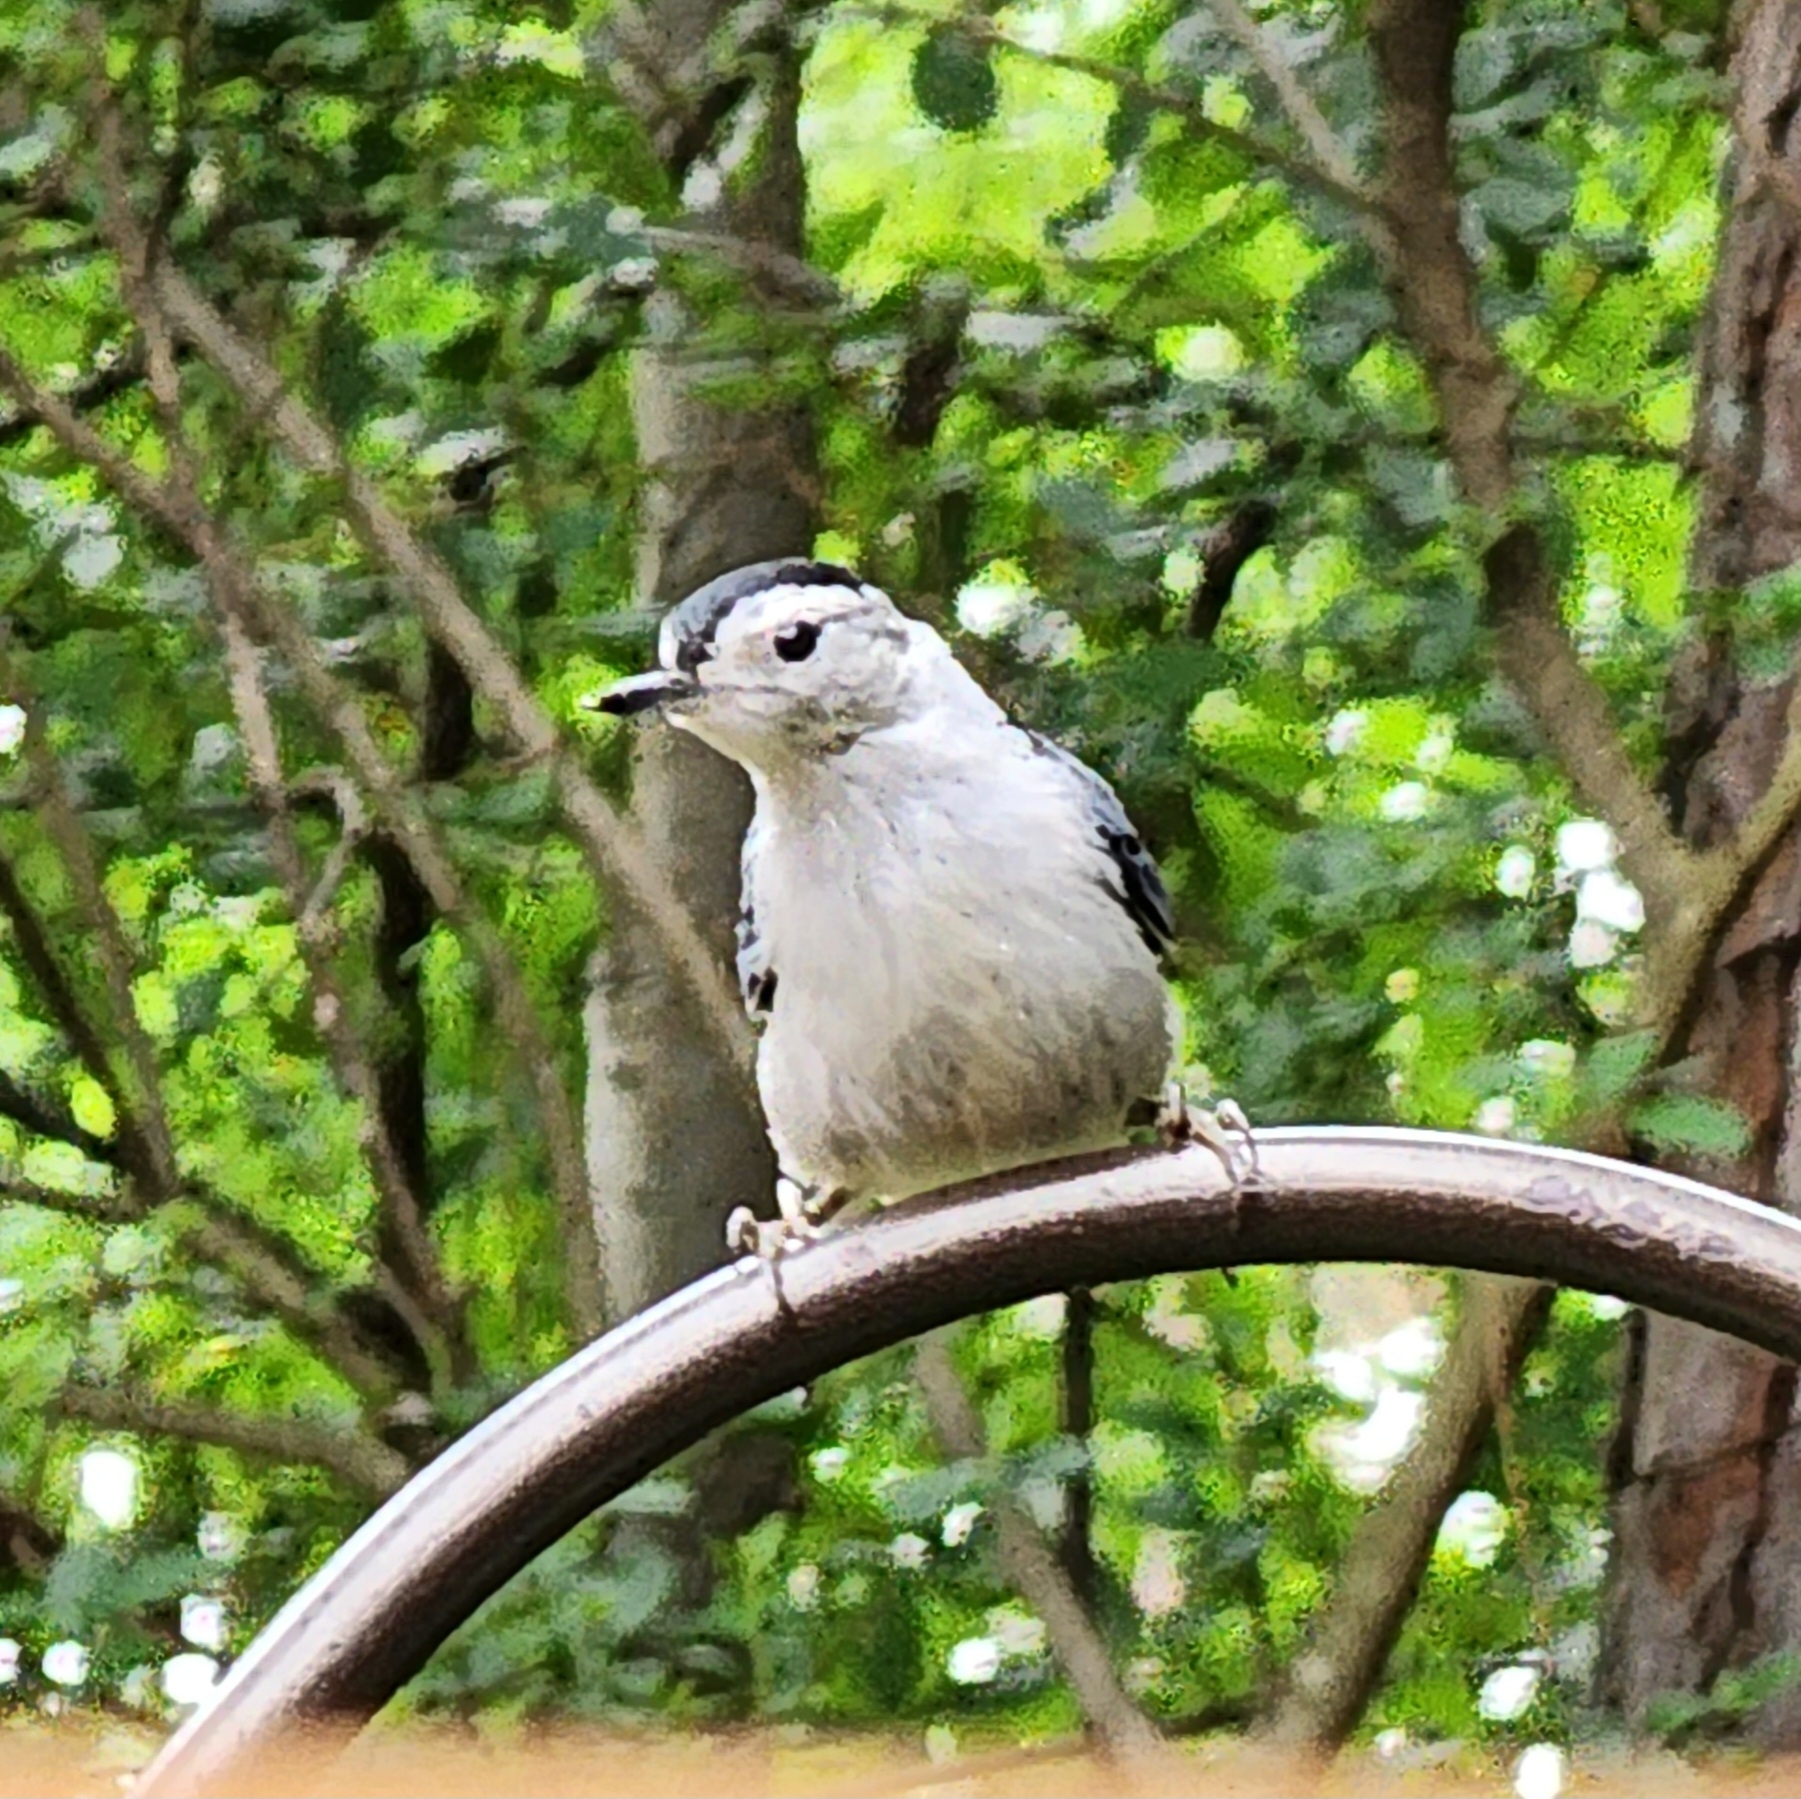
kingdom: Animalia
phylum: Chordata
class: Aves
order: Passeriformes
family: Sittidae
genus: Sitta
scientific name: Sitta carolinensis
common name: White-breasted nuthatch
